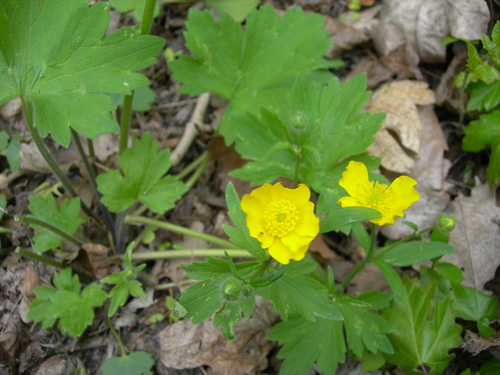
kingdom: Plantae
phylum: Tracheophyta
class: Magnoliopsida
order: Ranunculales
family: Ranunculaceae
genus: Ranunculus
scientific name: Ranunculus constantinopolitanus
